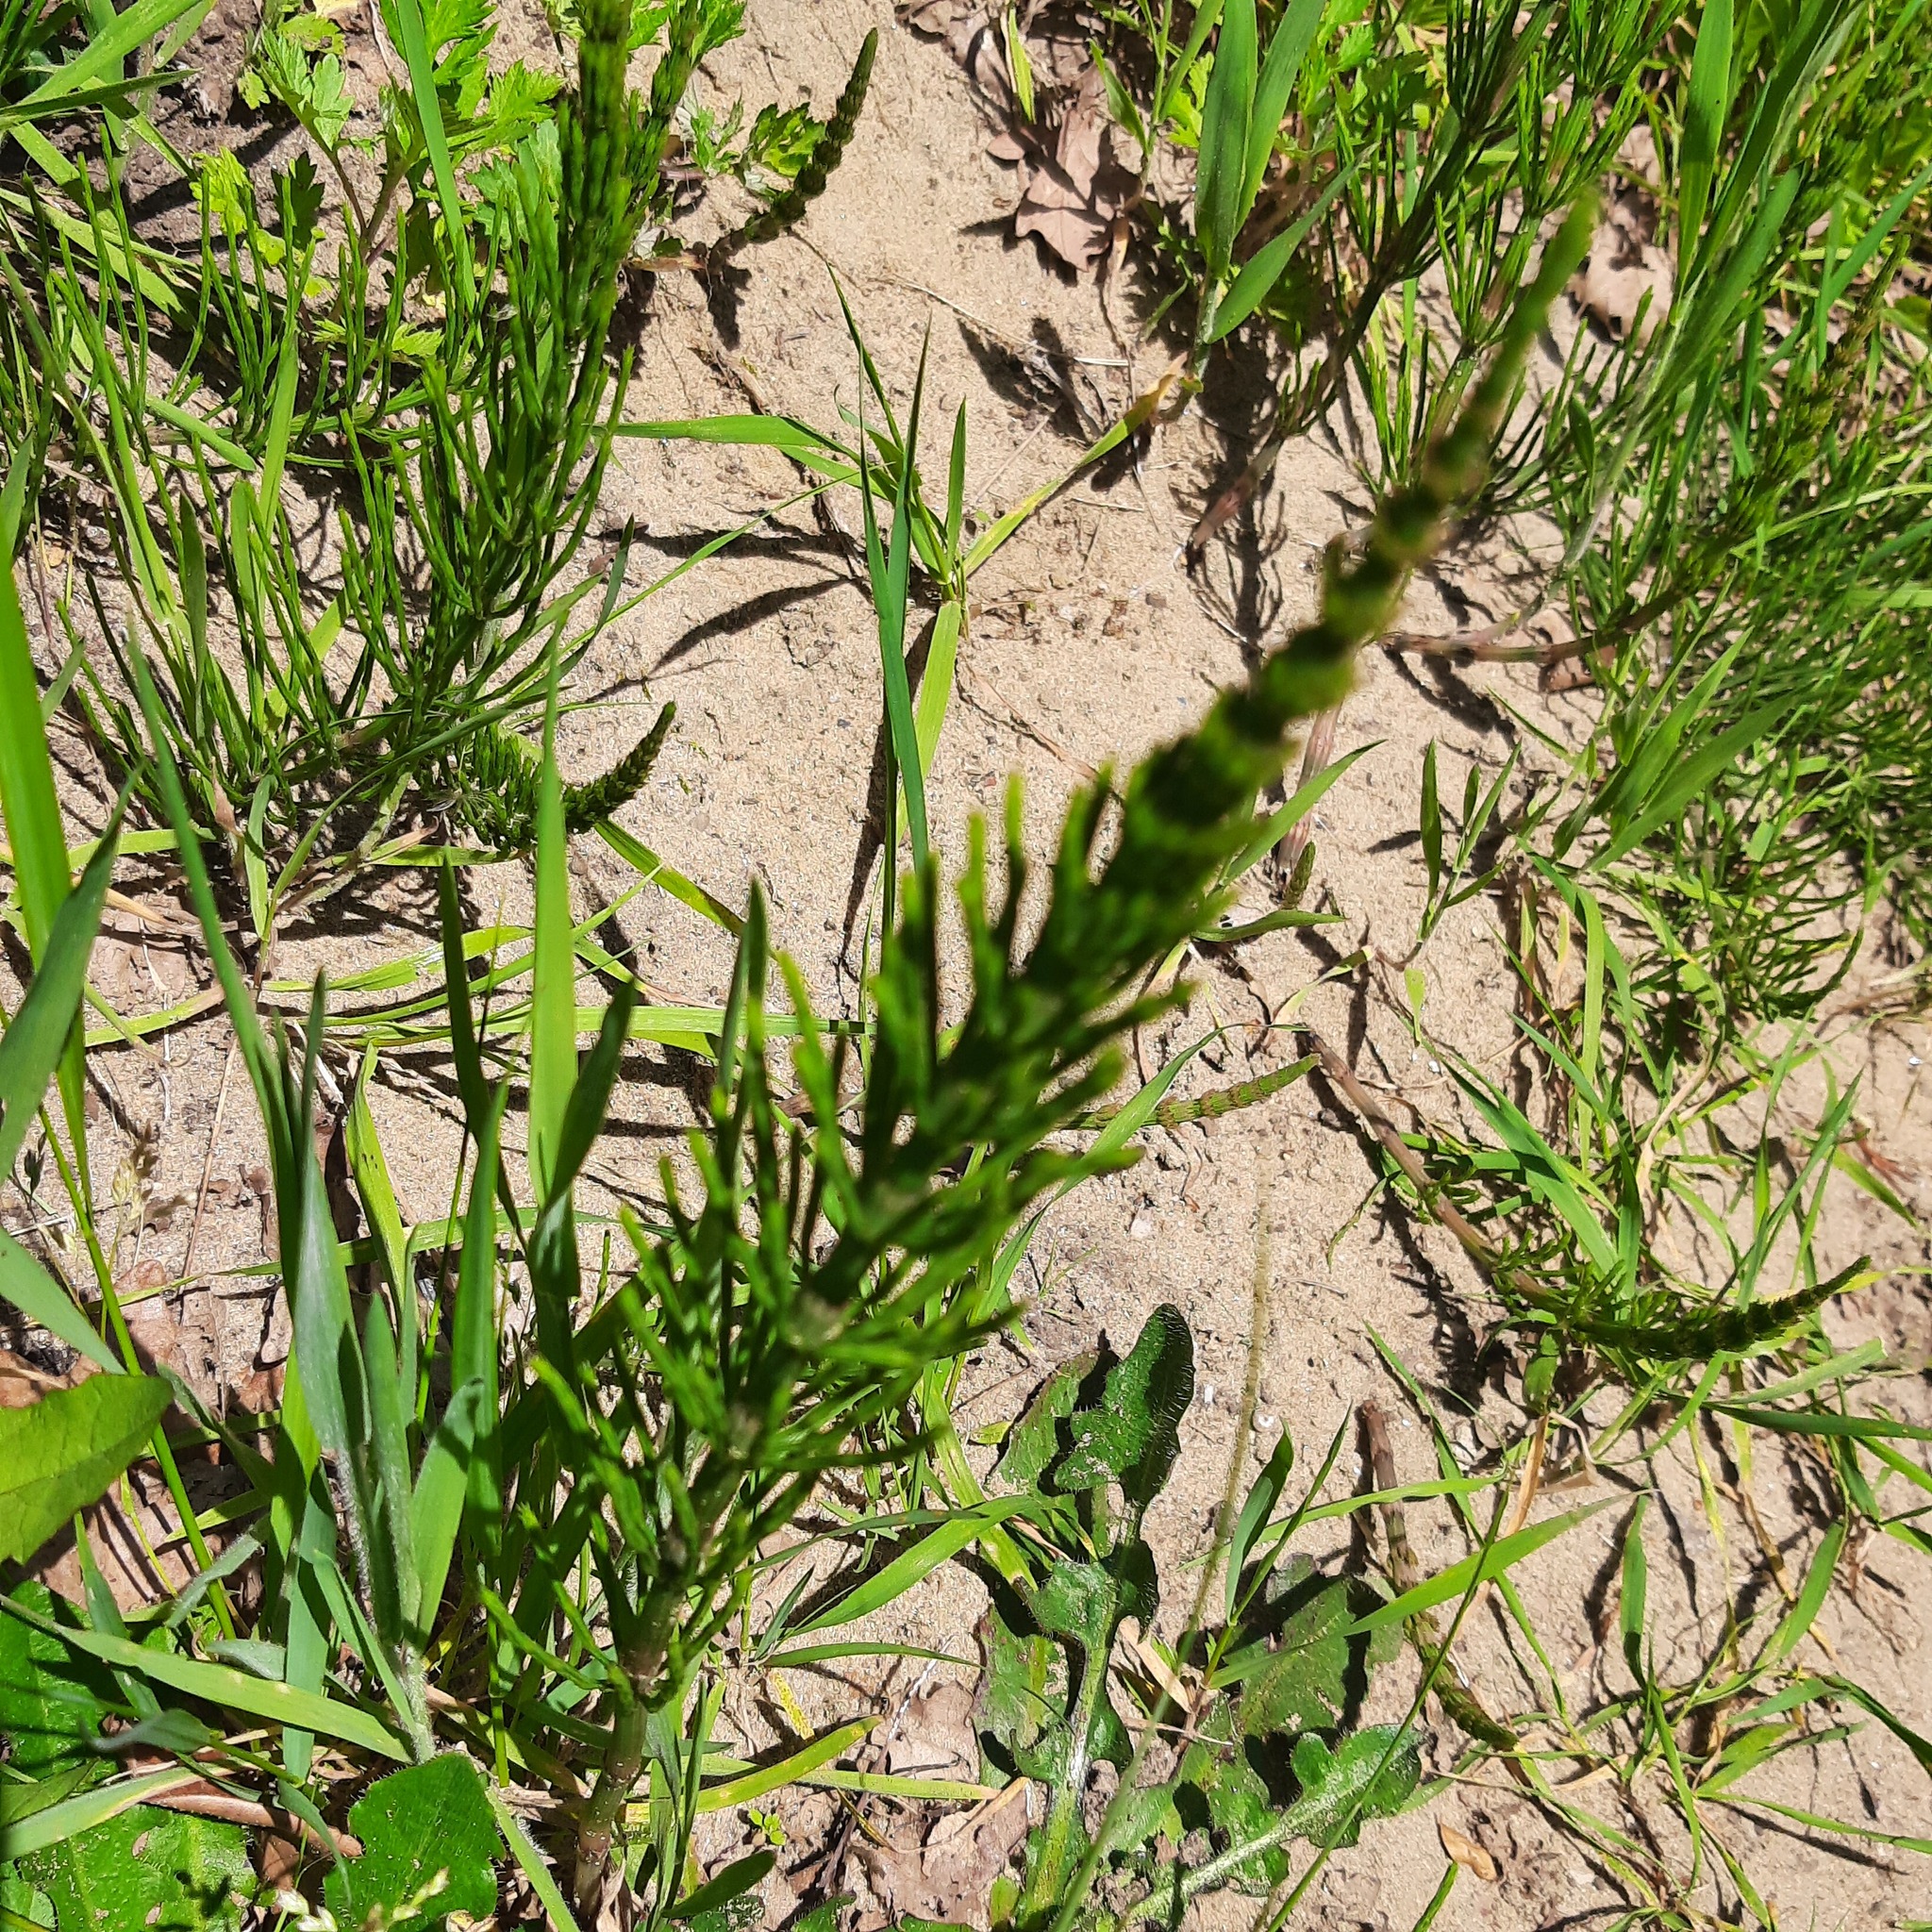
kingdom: Plantae
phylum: Tracheophyta
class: Polypodiopsida
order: Equisetales
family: Equisetaceae
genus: Equisetum
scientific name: Equisetum arvense
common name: Field horsetail
